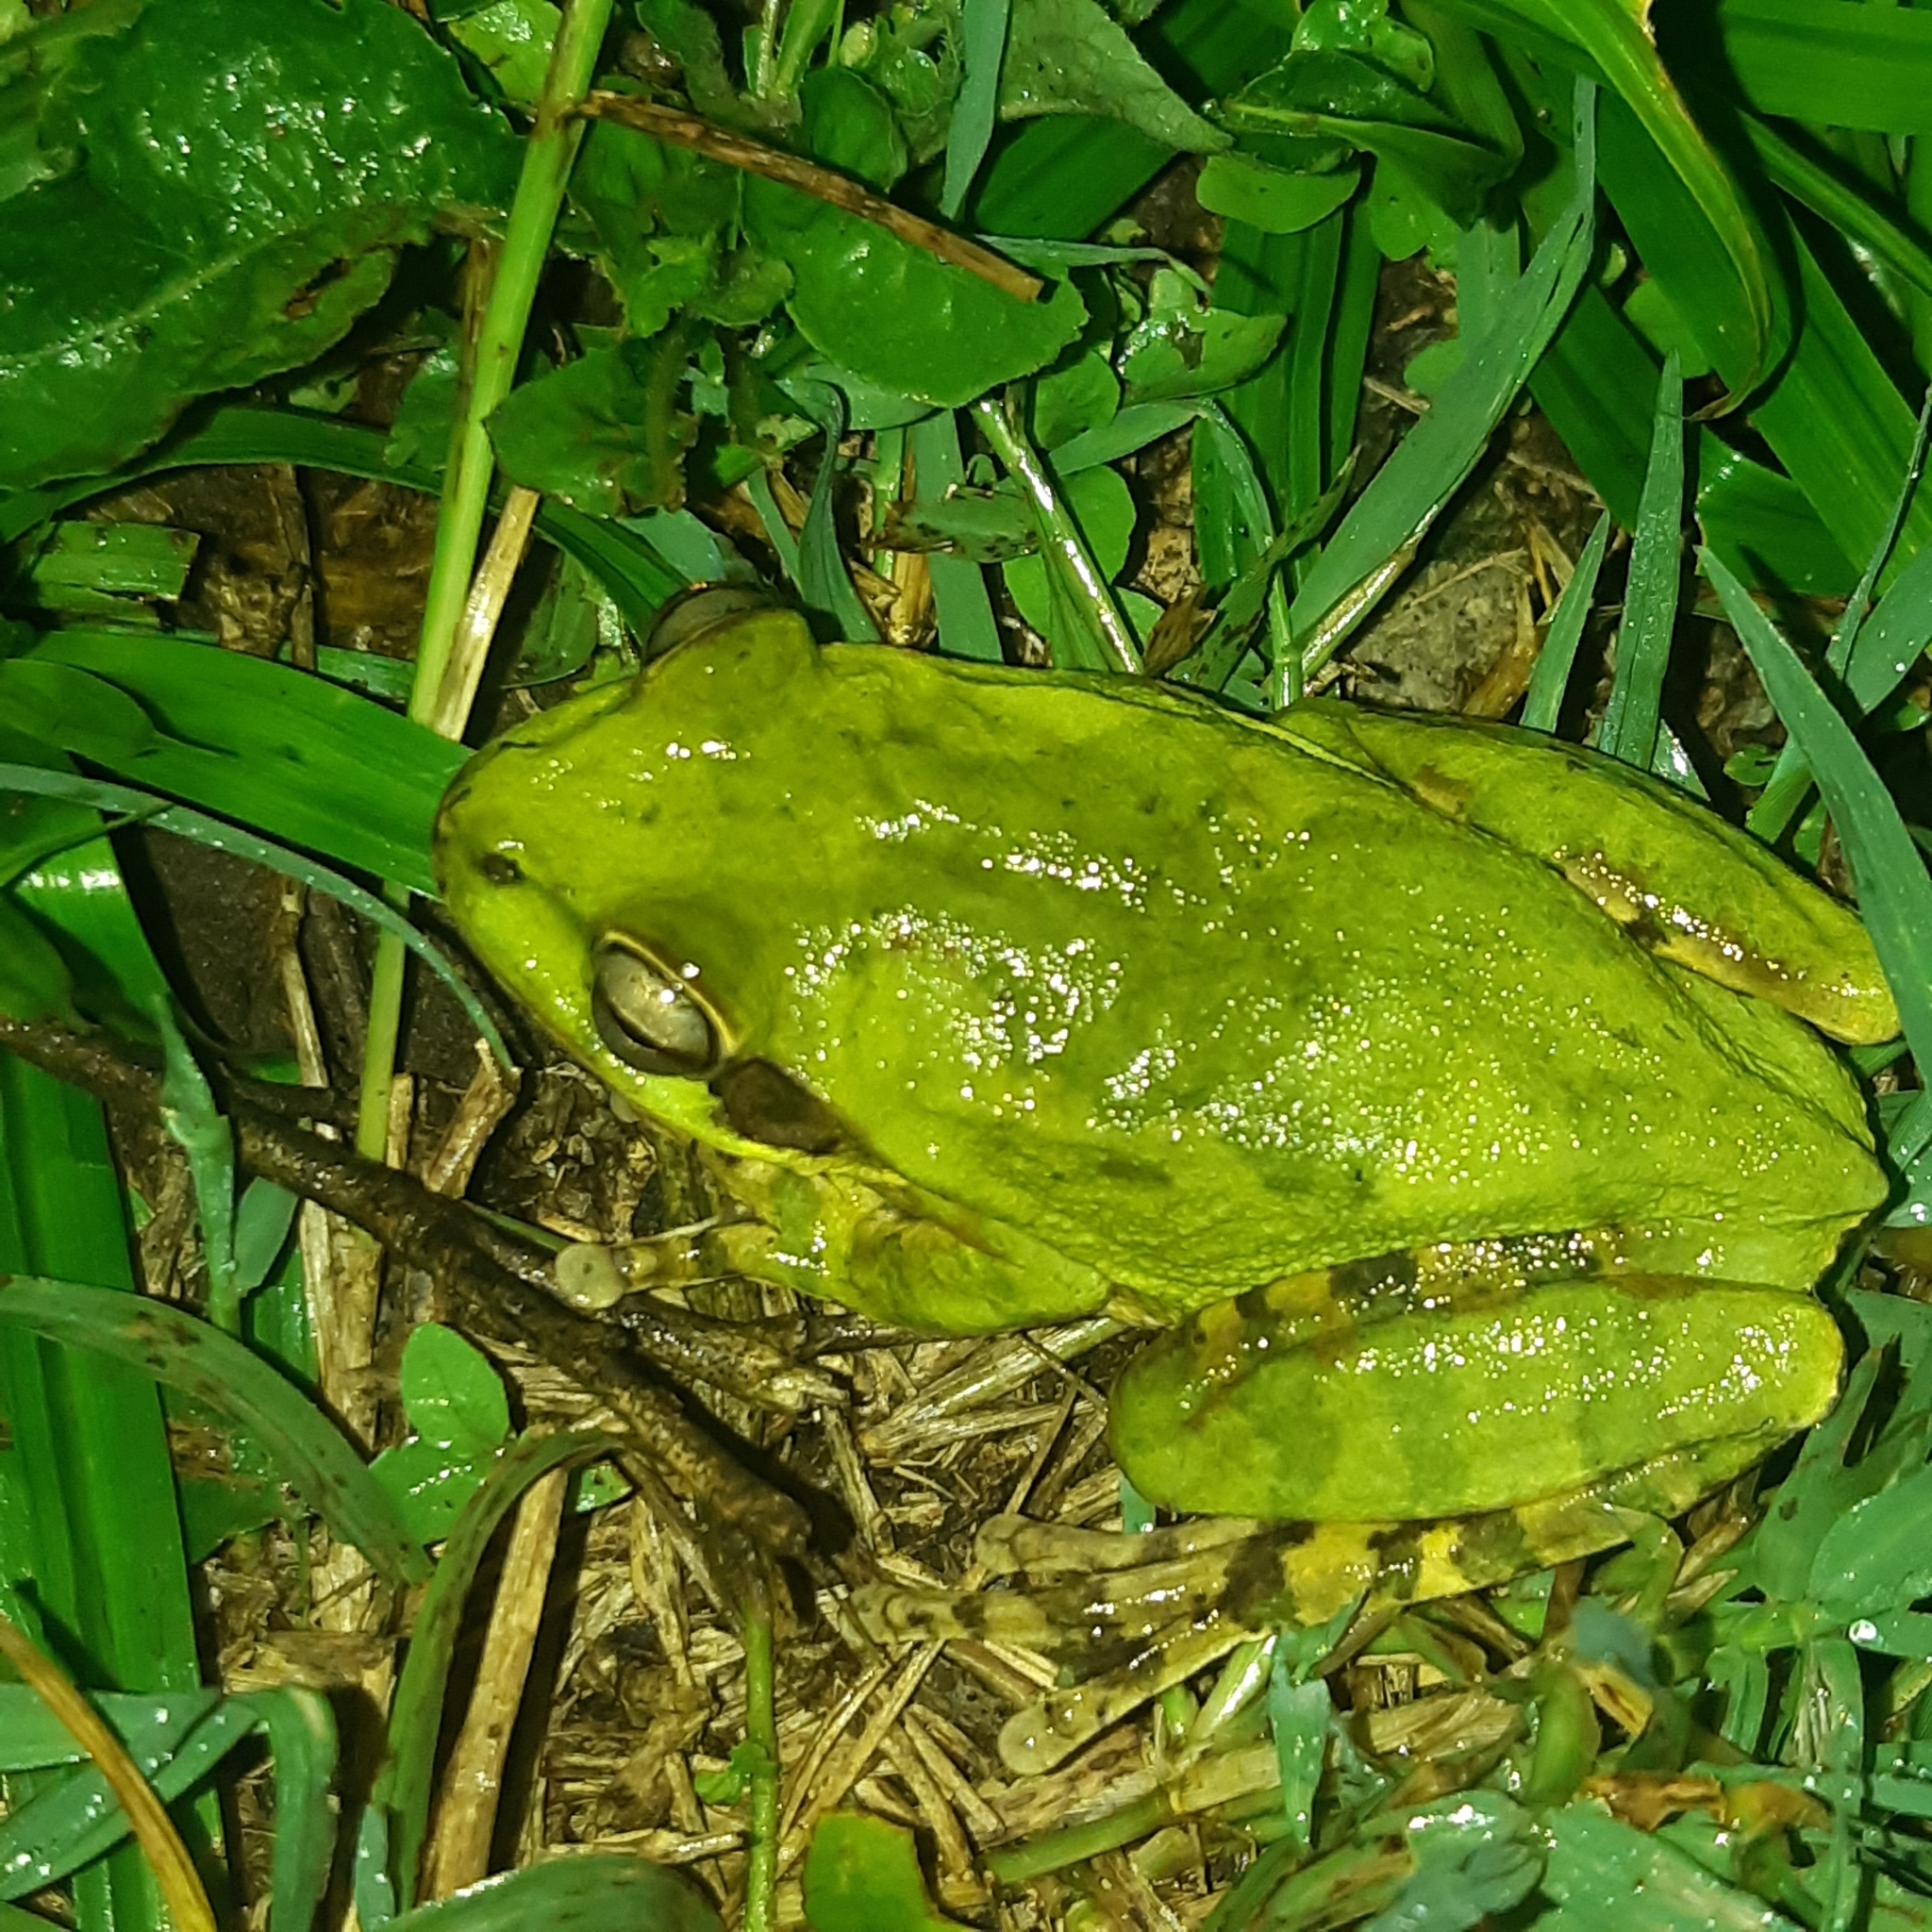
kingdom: Animalia
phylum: Chordata
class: Amphibia
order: Anura
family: Hylidae
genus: Smilisca
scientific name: Smilisca baudinii
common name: Mexican smilisca
